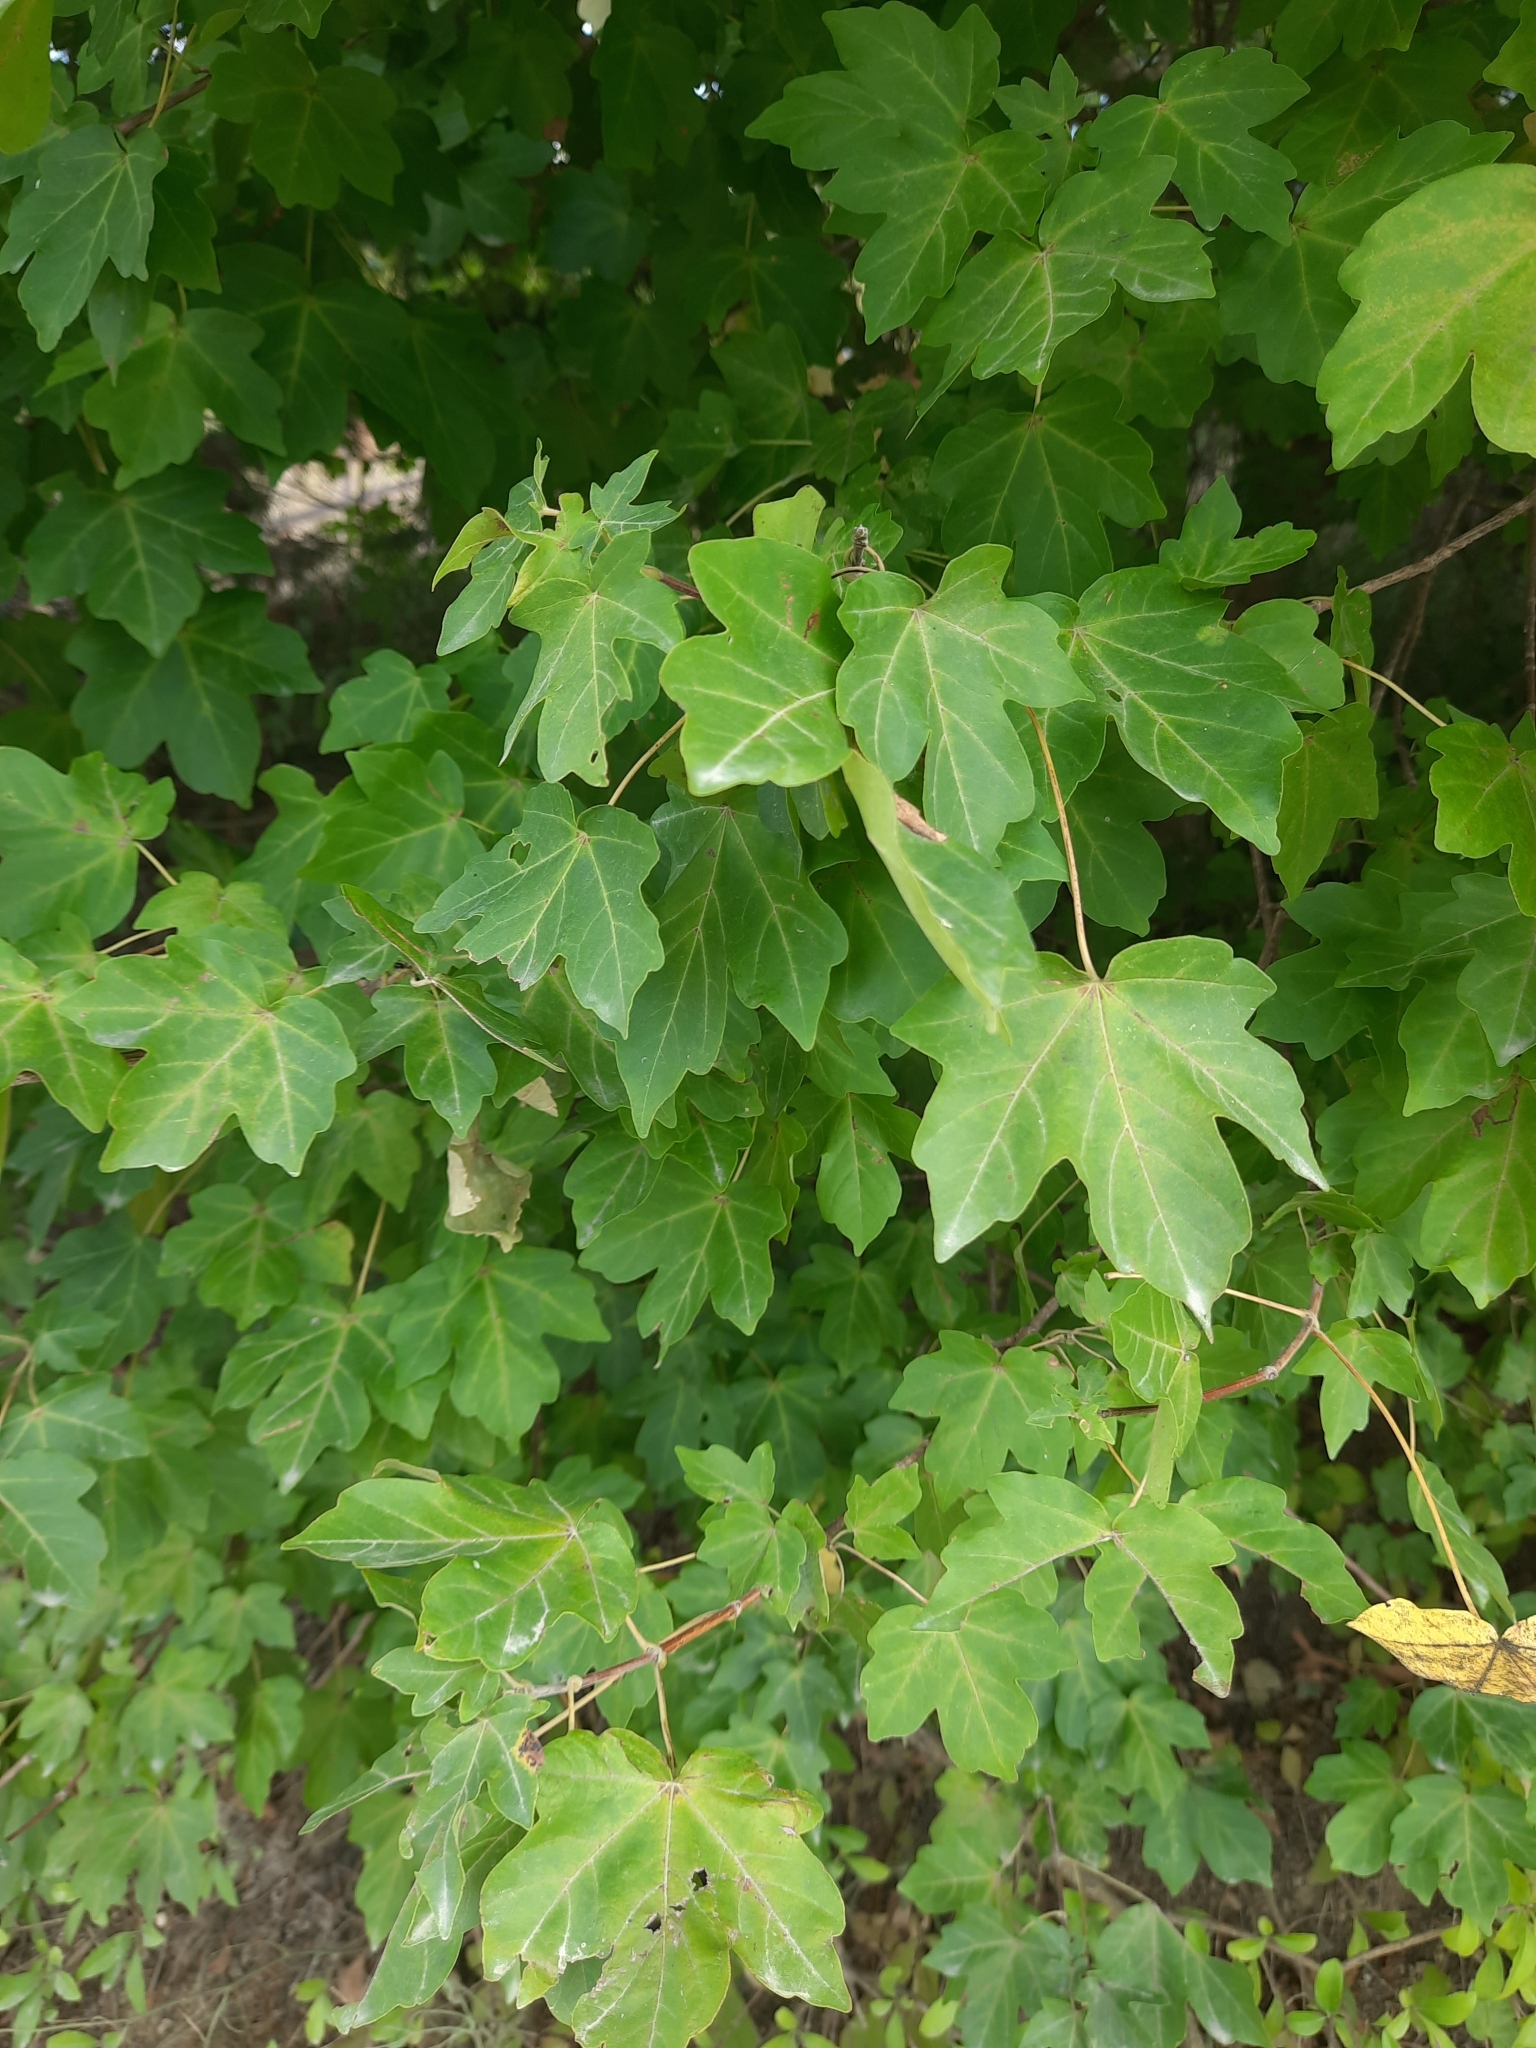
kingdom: Plantae
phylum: Tracheophyta
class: Magnoliopsida
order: Sapindales
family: Sapindaceae
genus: Acer
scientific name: Acer campestre
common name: Field maple
